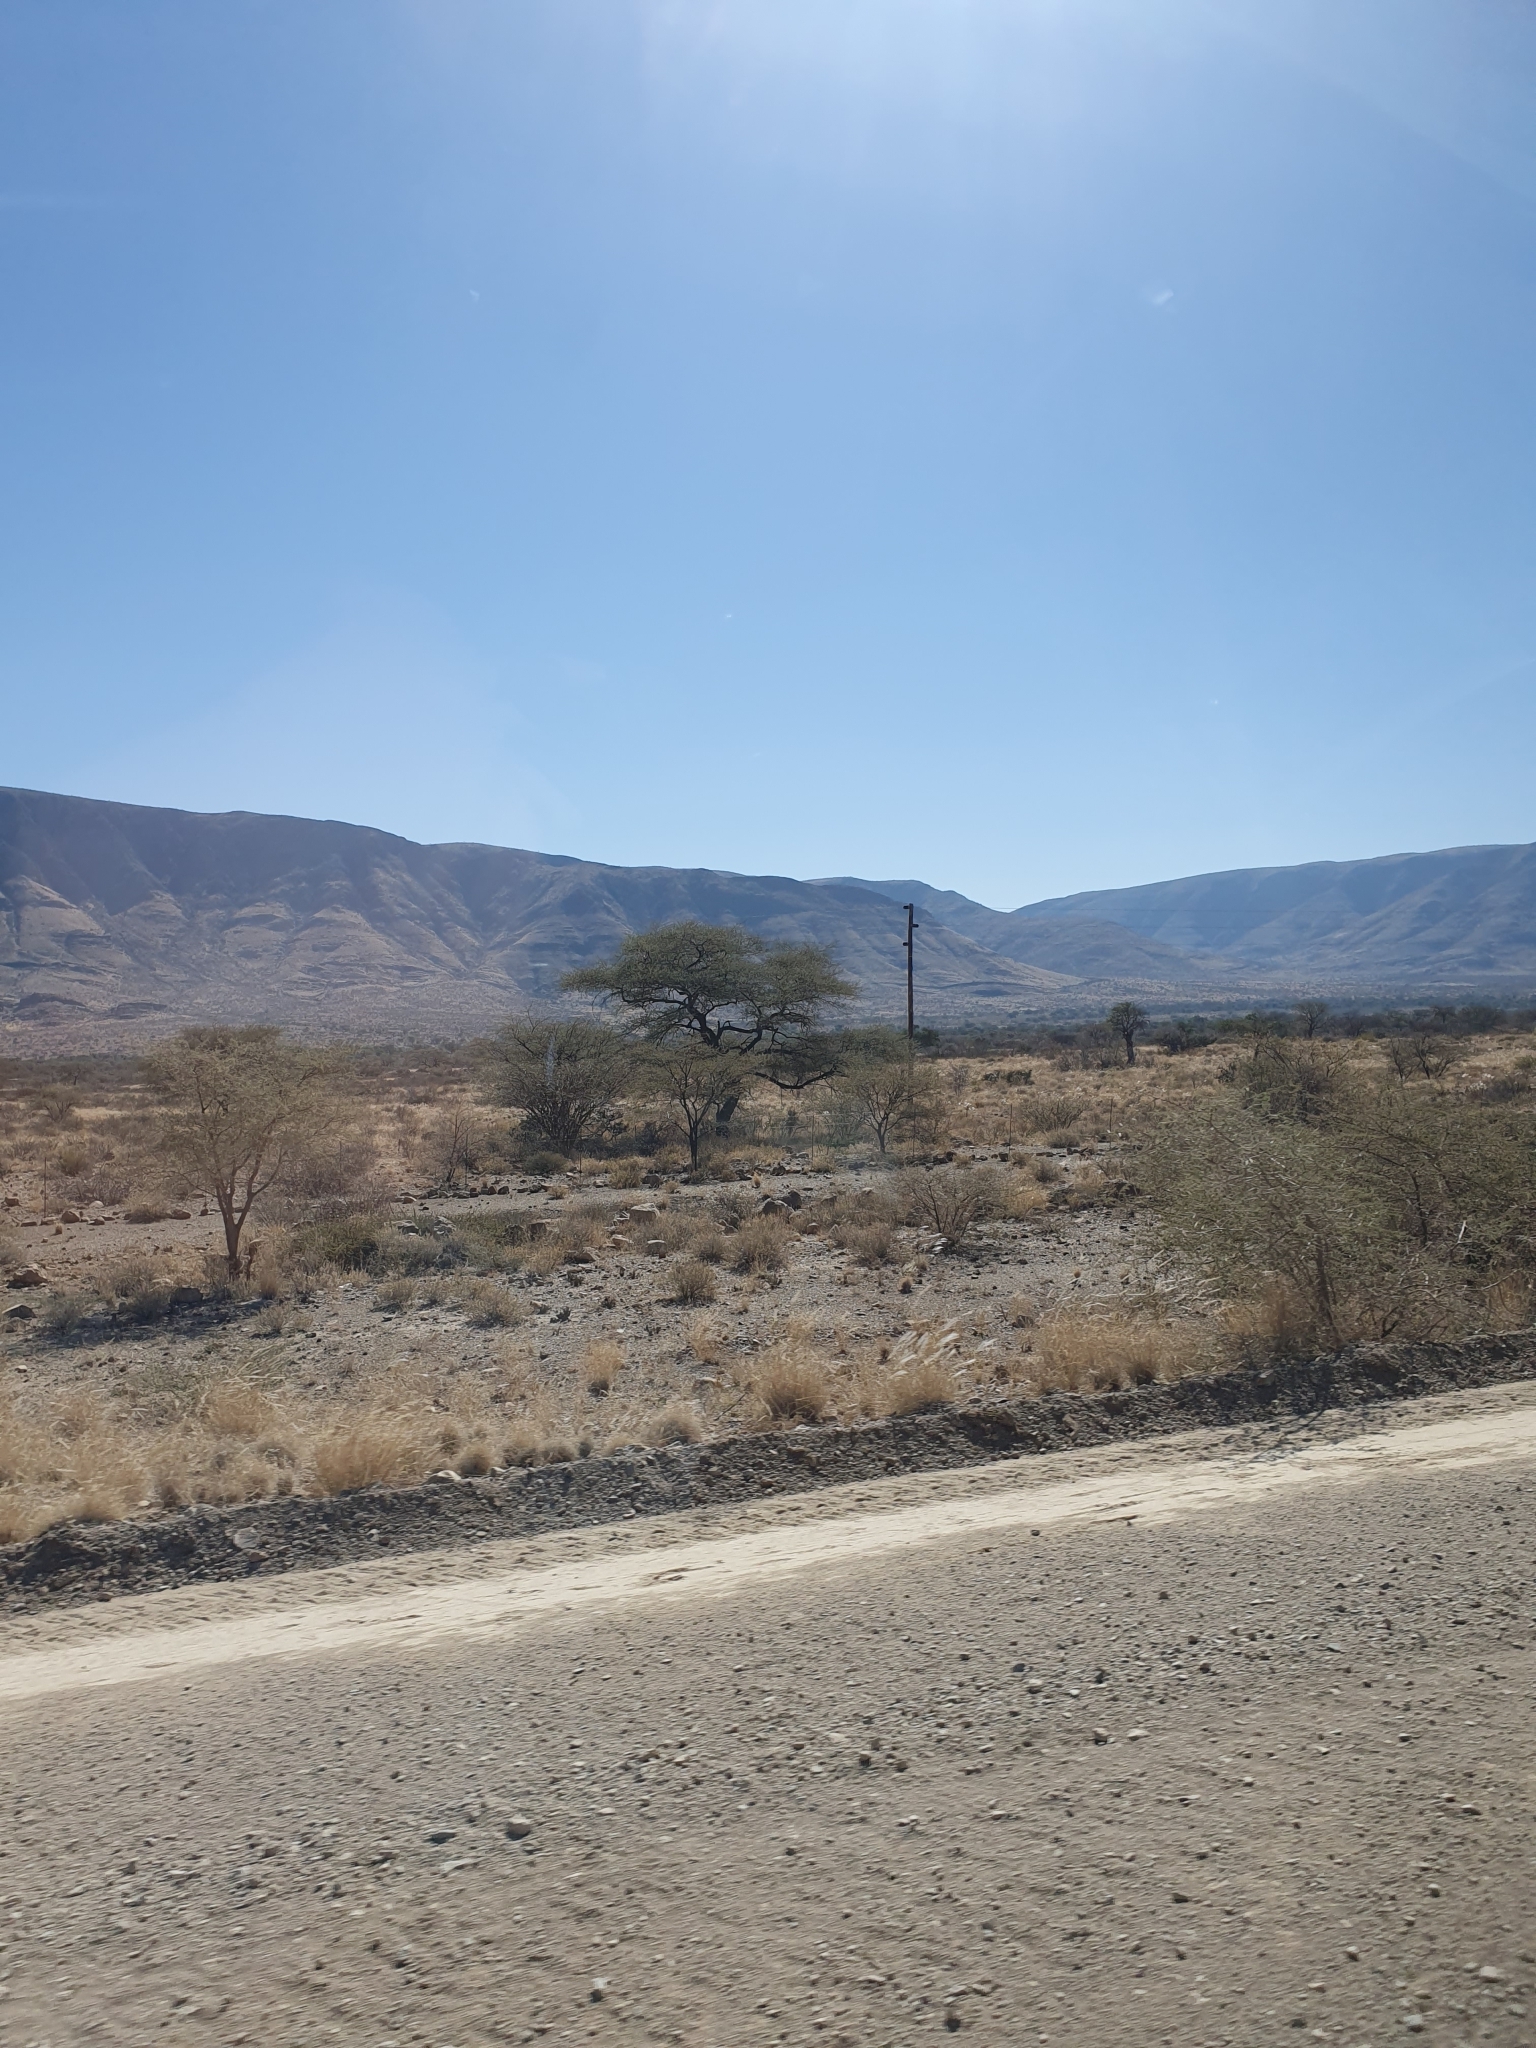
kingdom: Plantae
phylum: Tracheophyta
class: Magnoliopsida
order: Fabales
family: Fabaceae
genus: Vachellia
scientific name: Vachellia tortilis
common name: Umbrella thorn acacia
